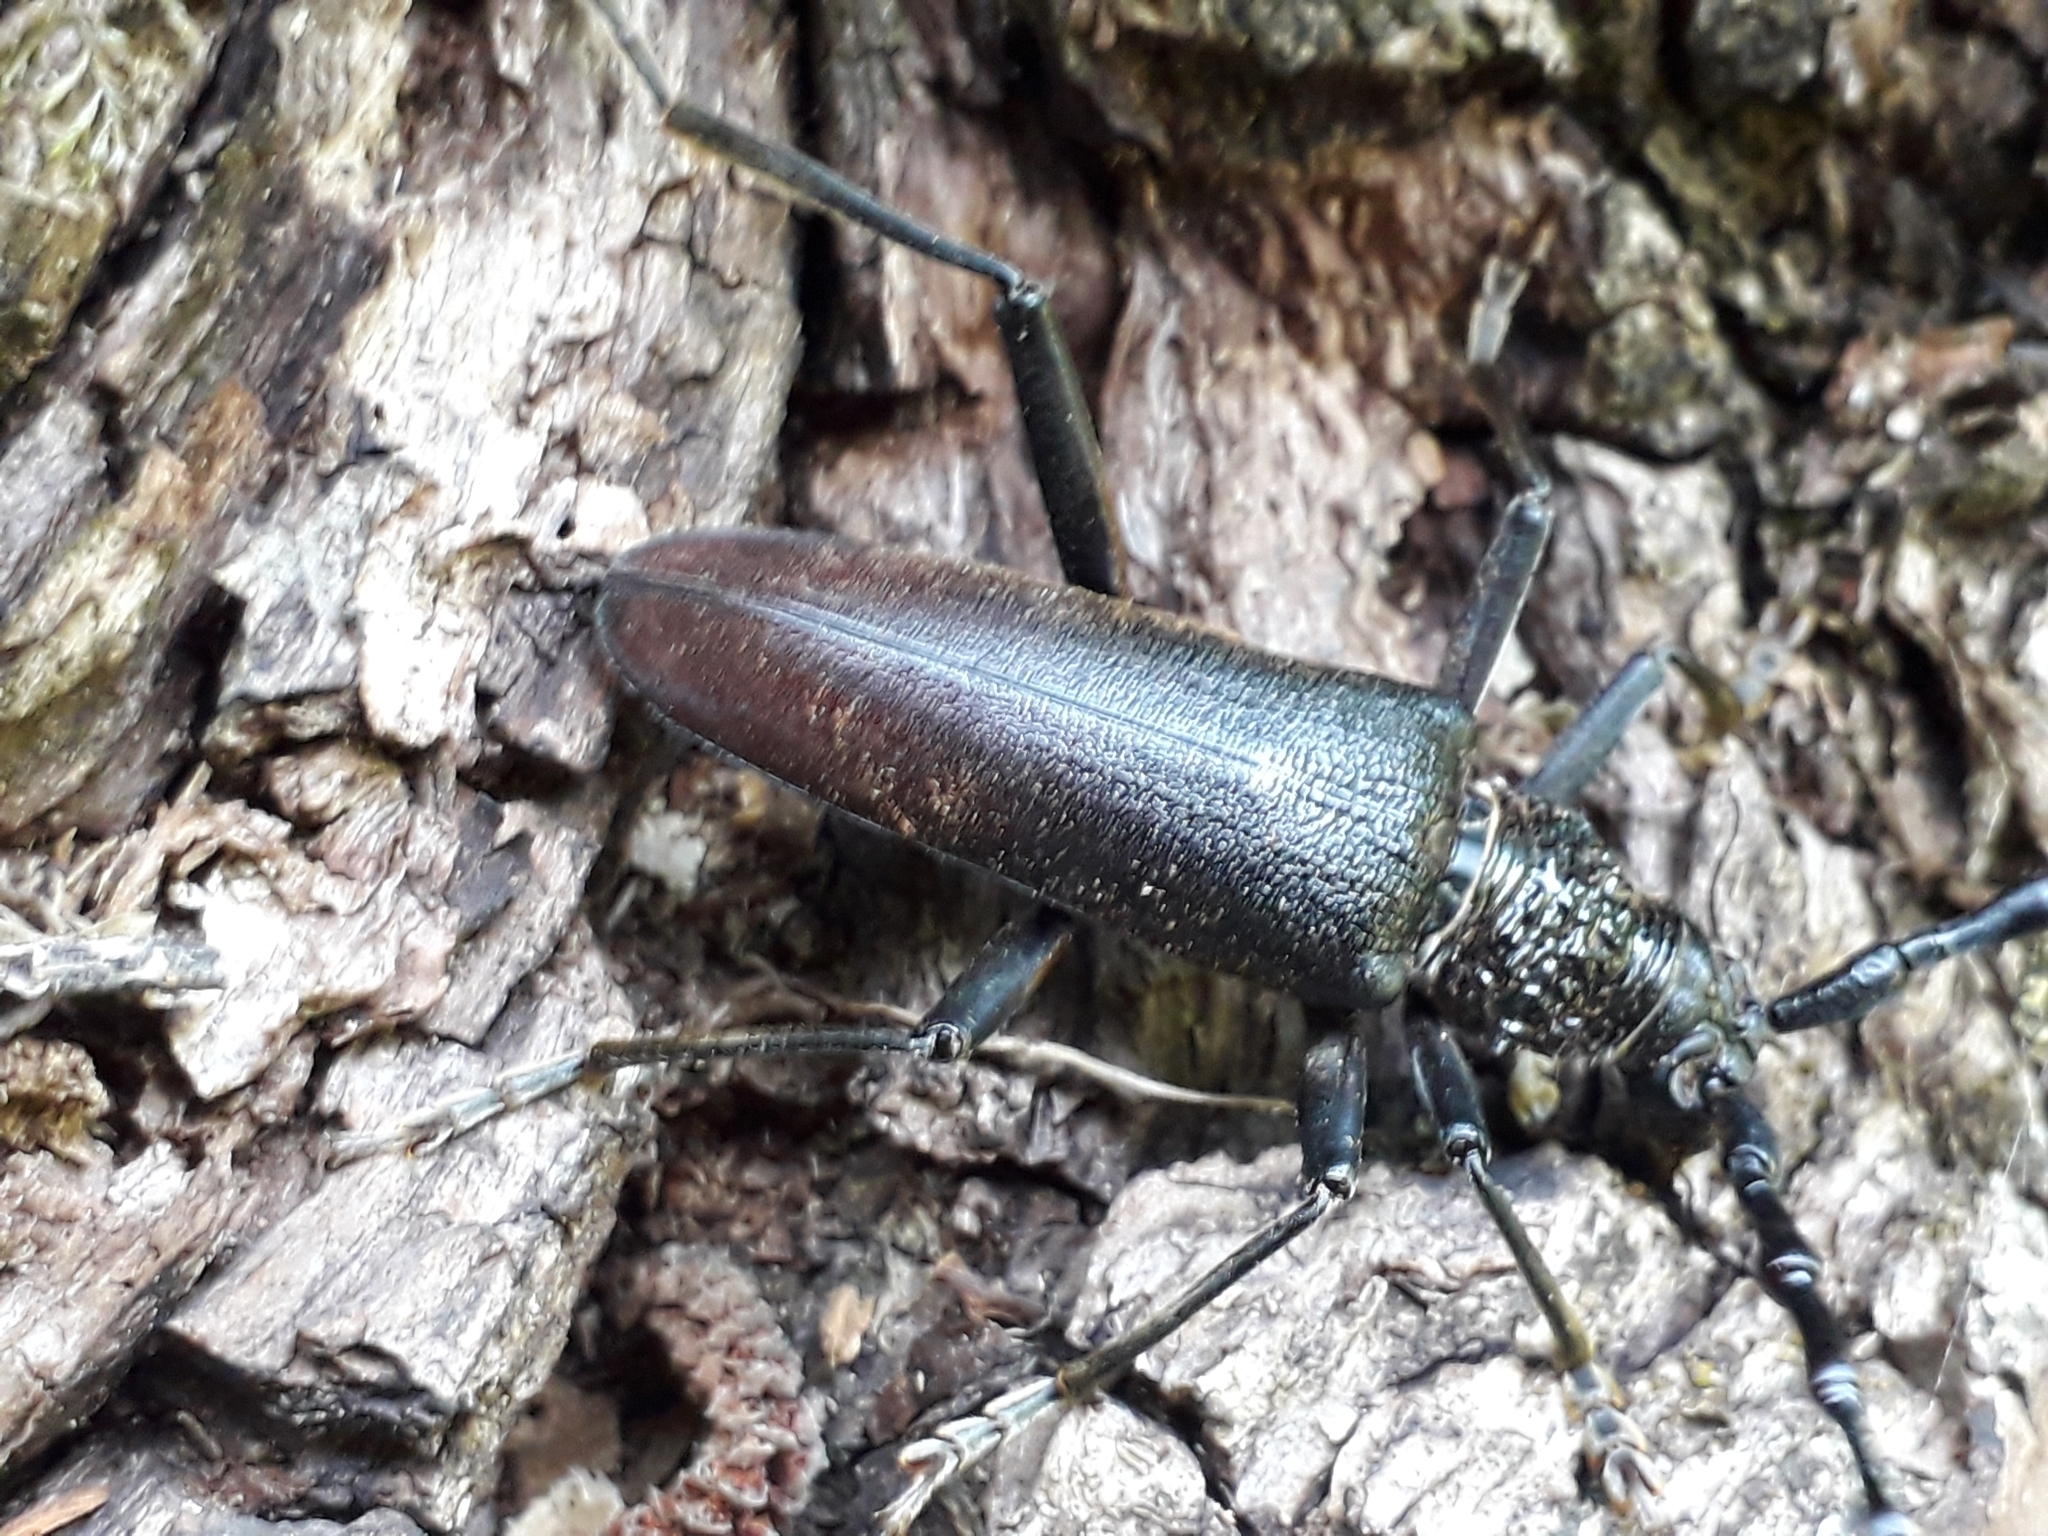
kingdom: Animalia
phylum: Arthropoda
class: Insecta
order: Coleoptera
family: Cerambycidae
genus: Cerambyx
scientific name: Cerambyx cerdo
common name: Cerambyx longicorn
